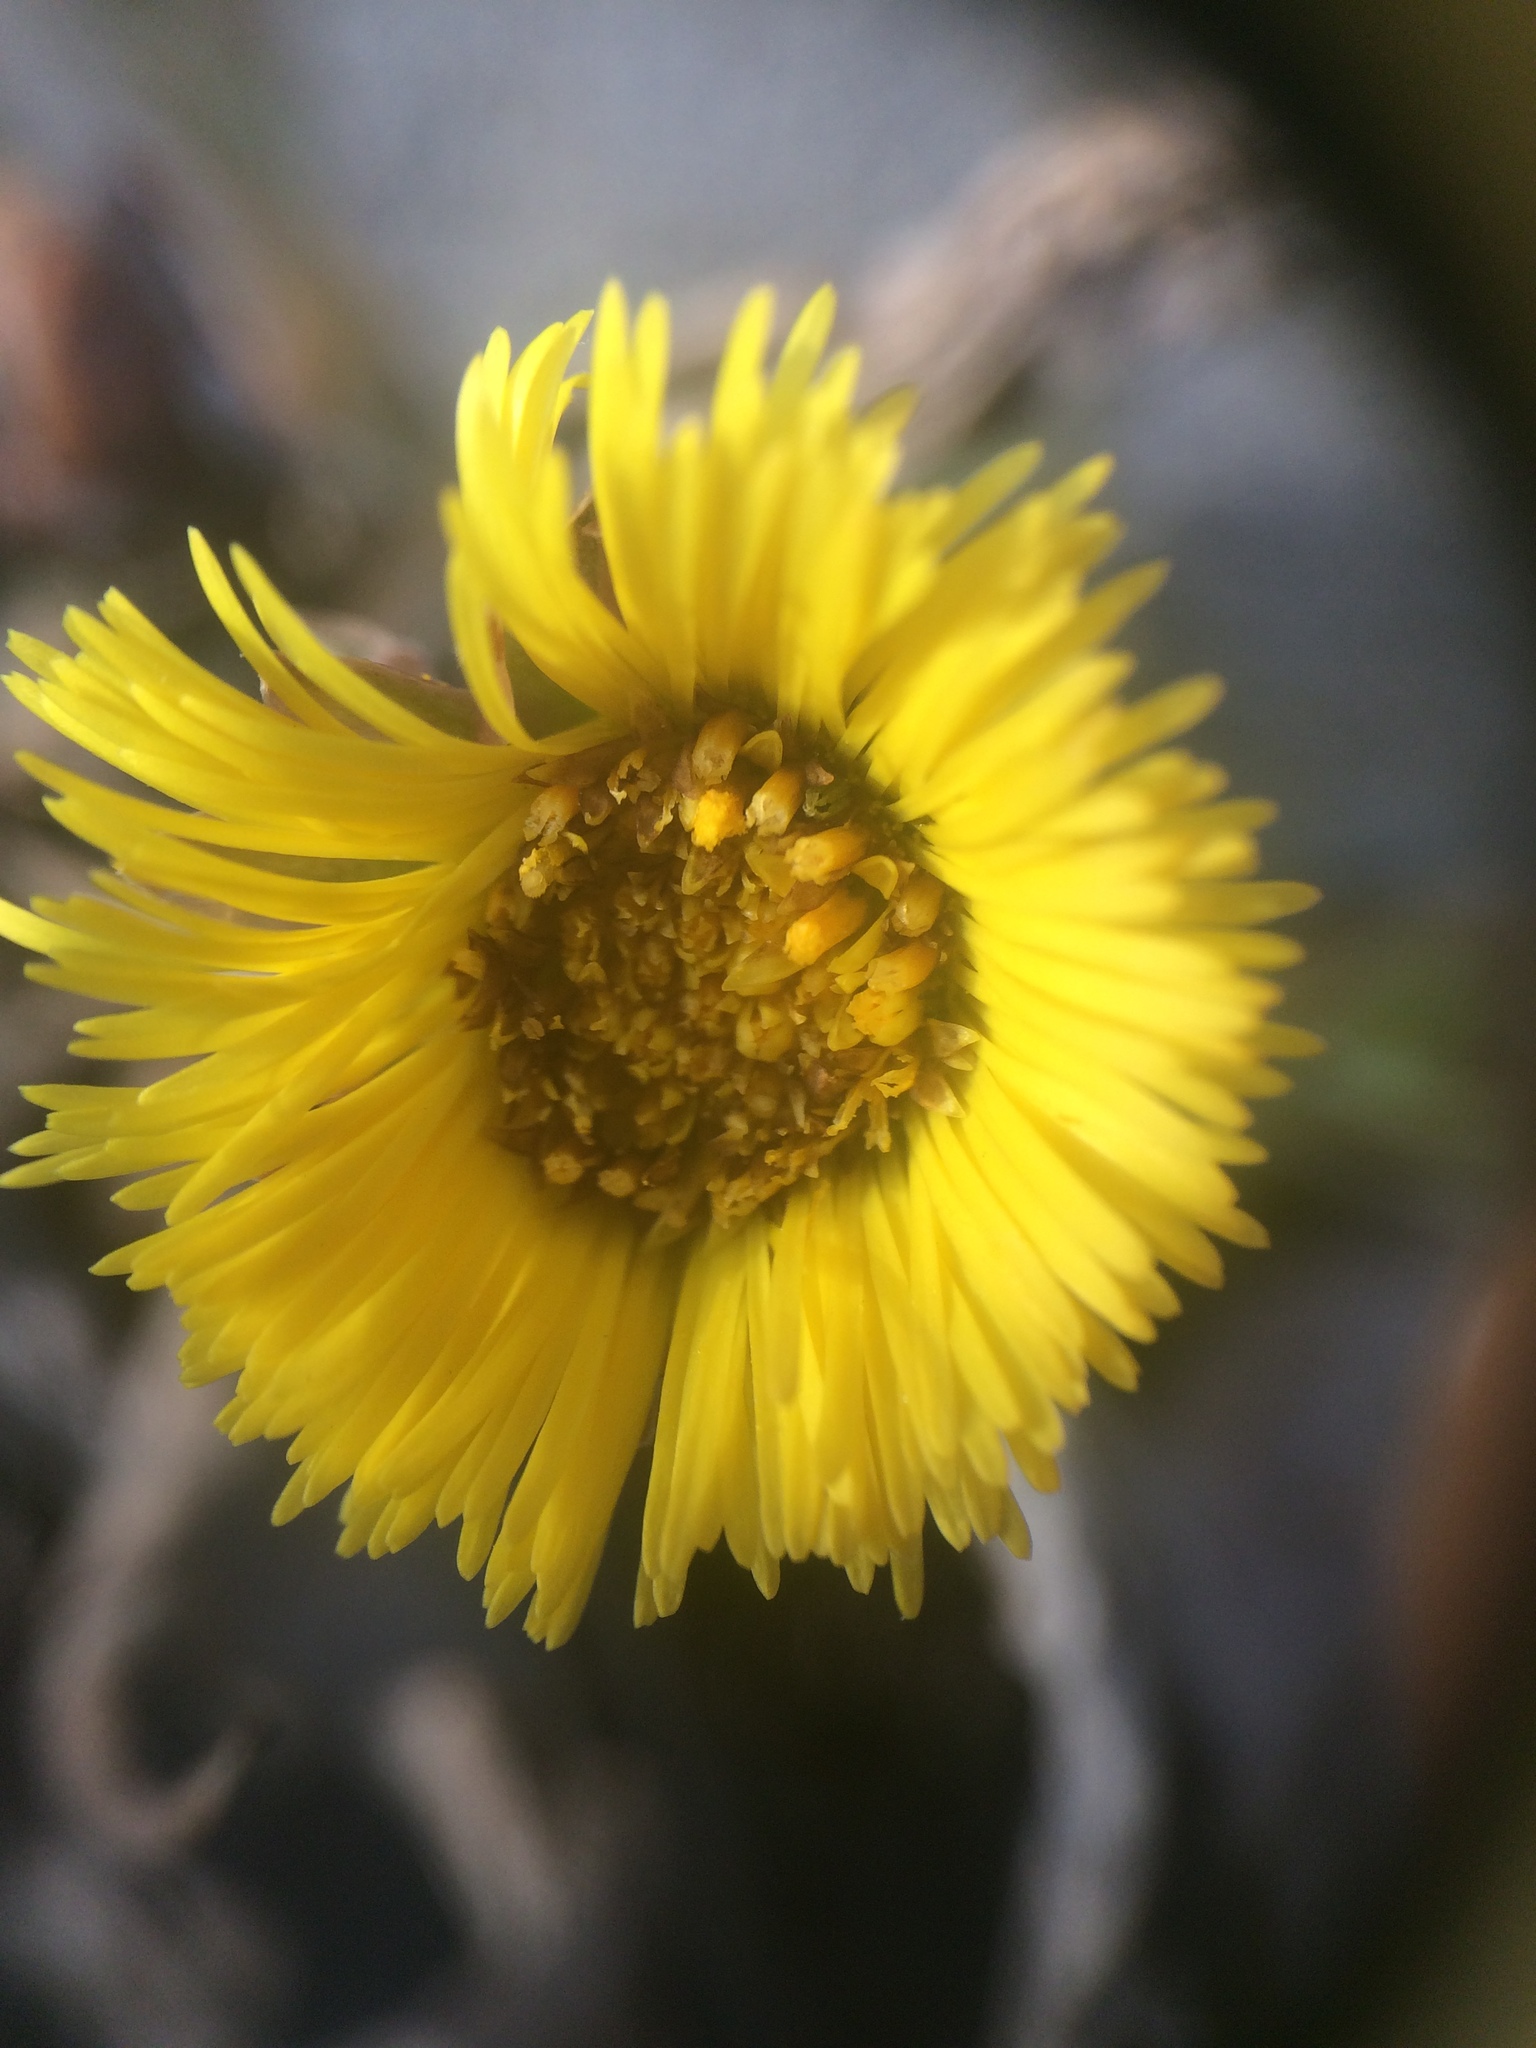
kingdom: Plantae
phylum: Tracheophyta
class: Magnoliopsida
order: Asterales
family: Asteraceae
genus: Tussilago
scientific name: Tussilago farfara
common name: Coltsfoot
